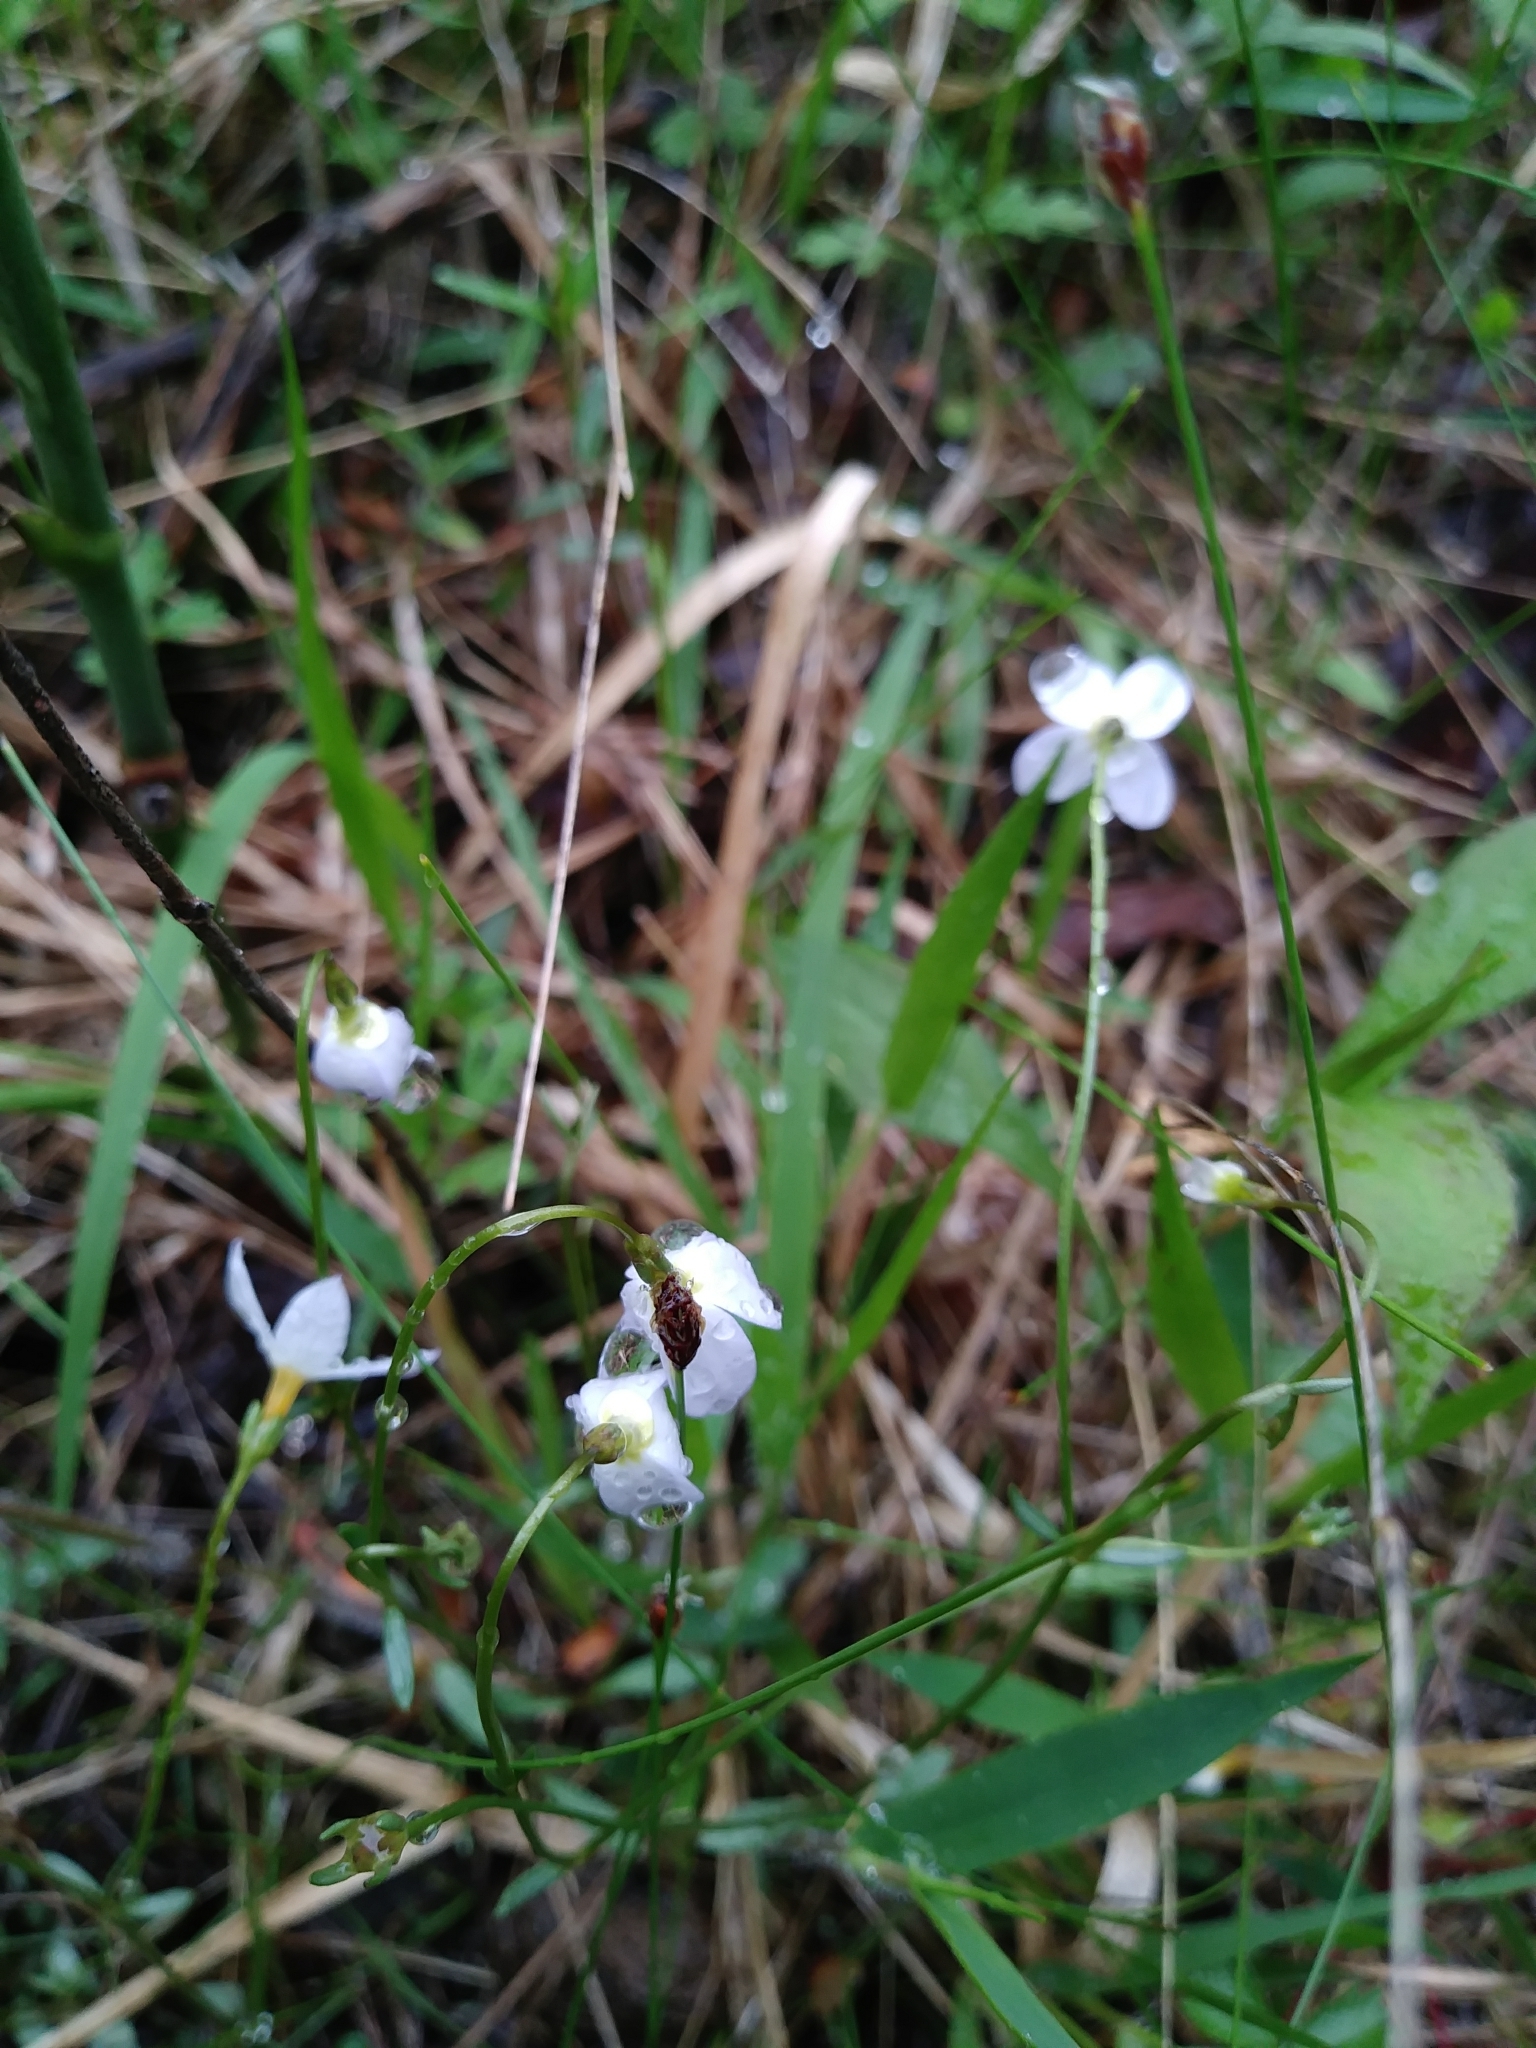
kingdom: Plantae
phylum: Tracheophyta
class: Magnoliopsida
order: Gentianales
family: Rubiaceae
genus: Houstonia
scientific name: Houstonia caerulea
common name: Bluets
